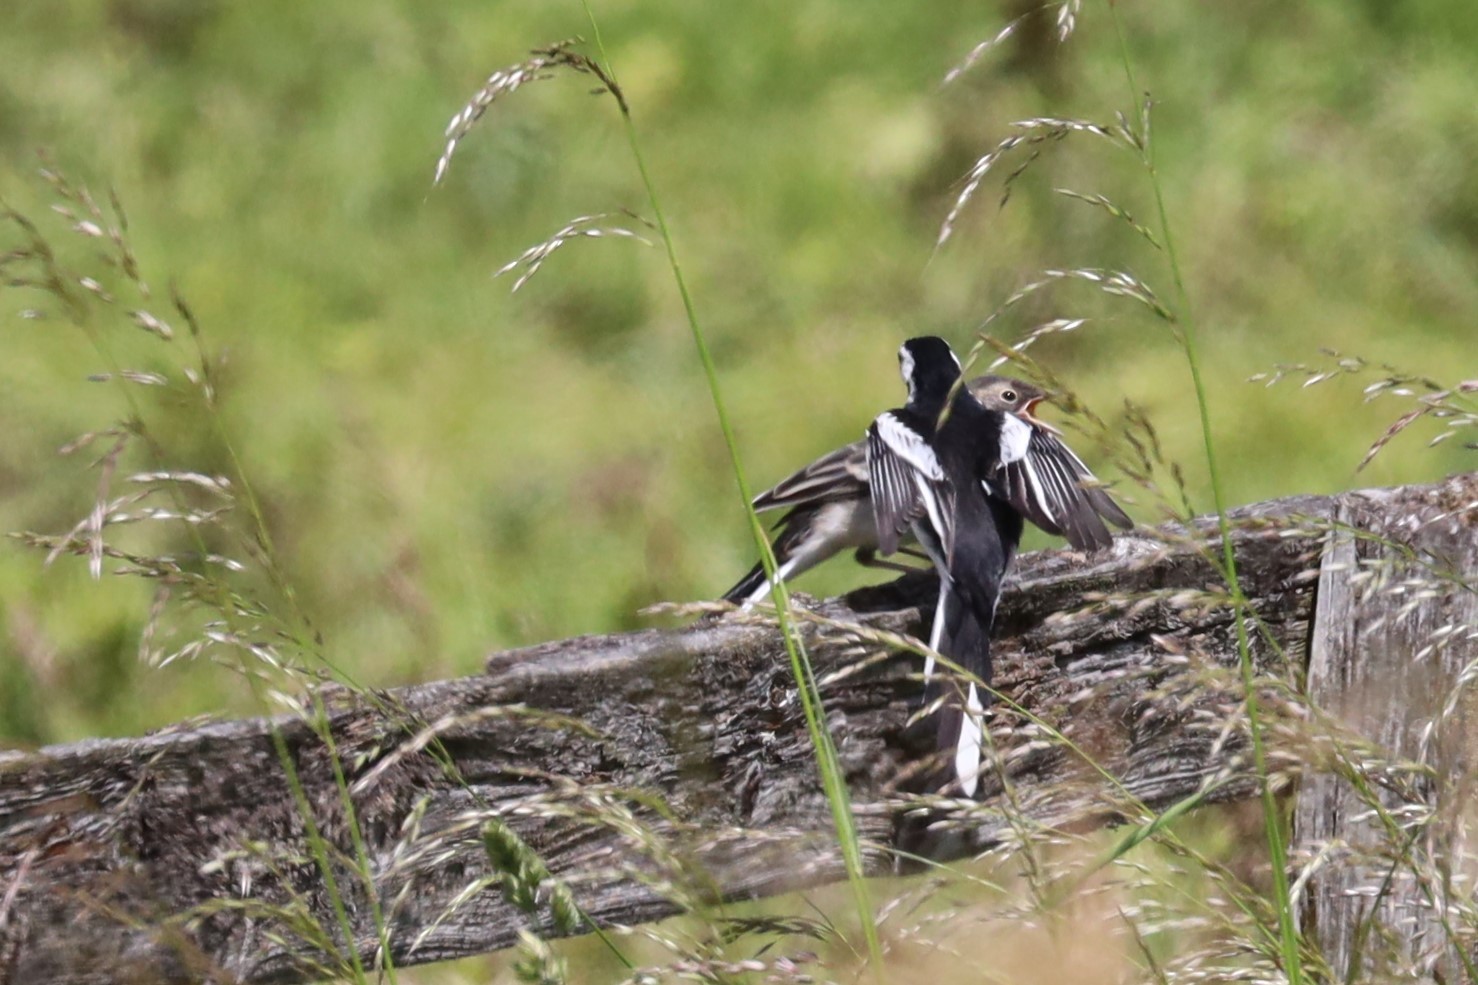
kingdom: Animalia
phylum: Chordata
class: Aves
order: Passeriformes
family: Motacillidae
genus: Motacilla
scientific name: Motacilla alba
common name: White wagtail
